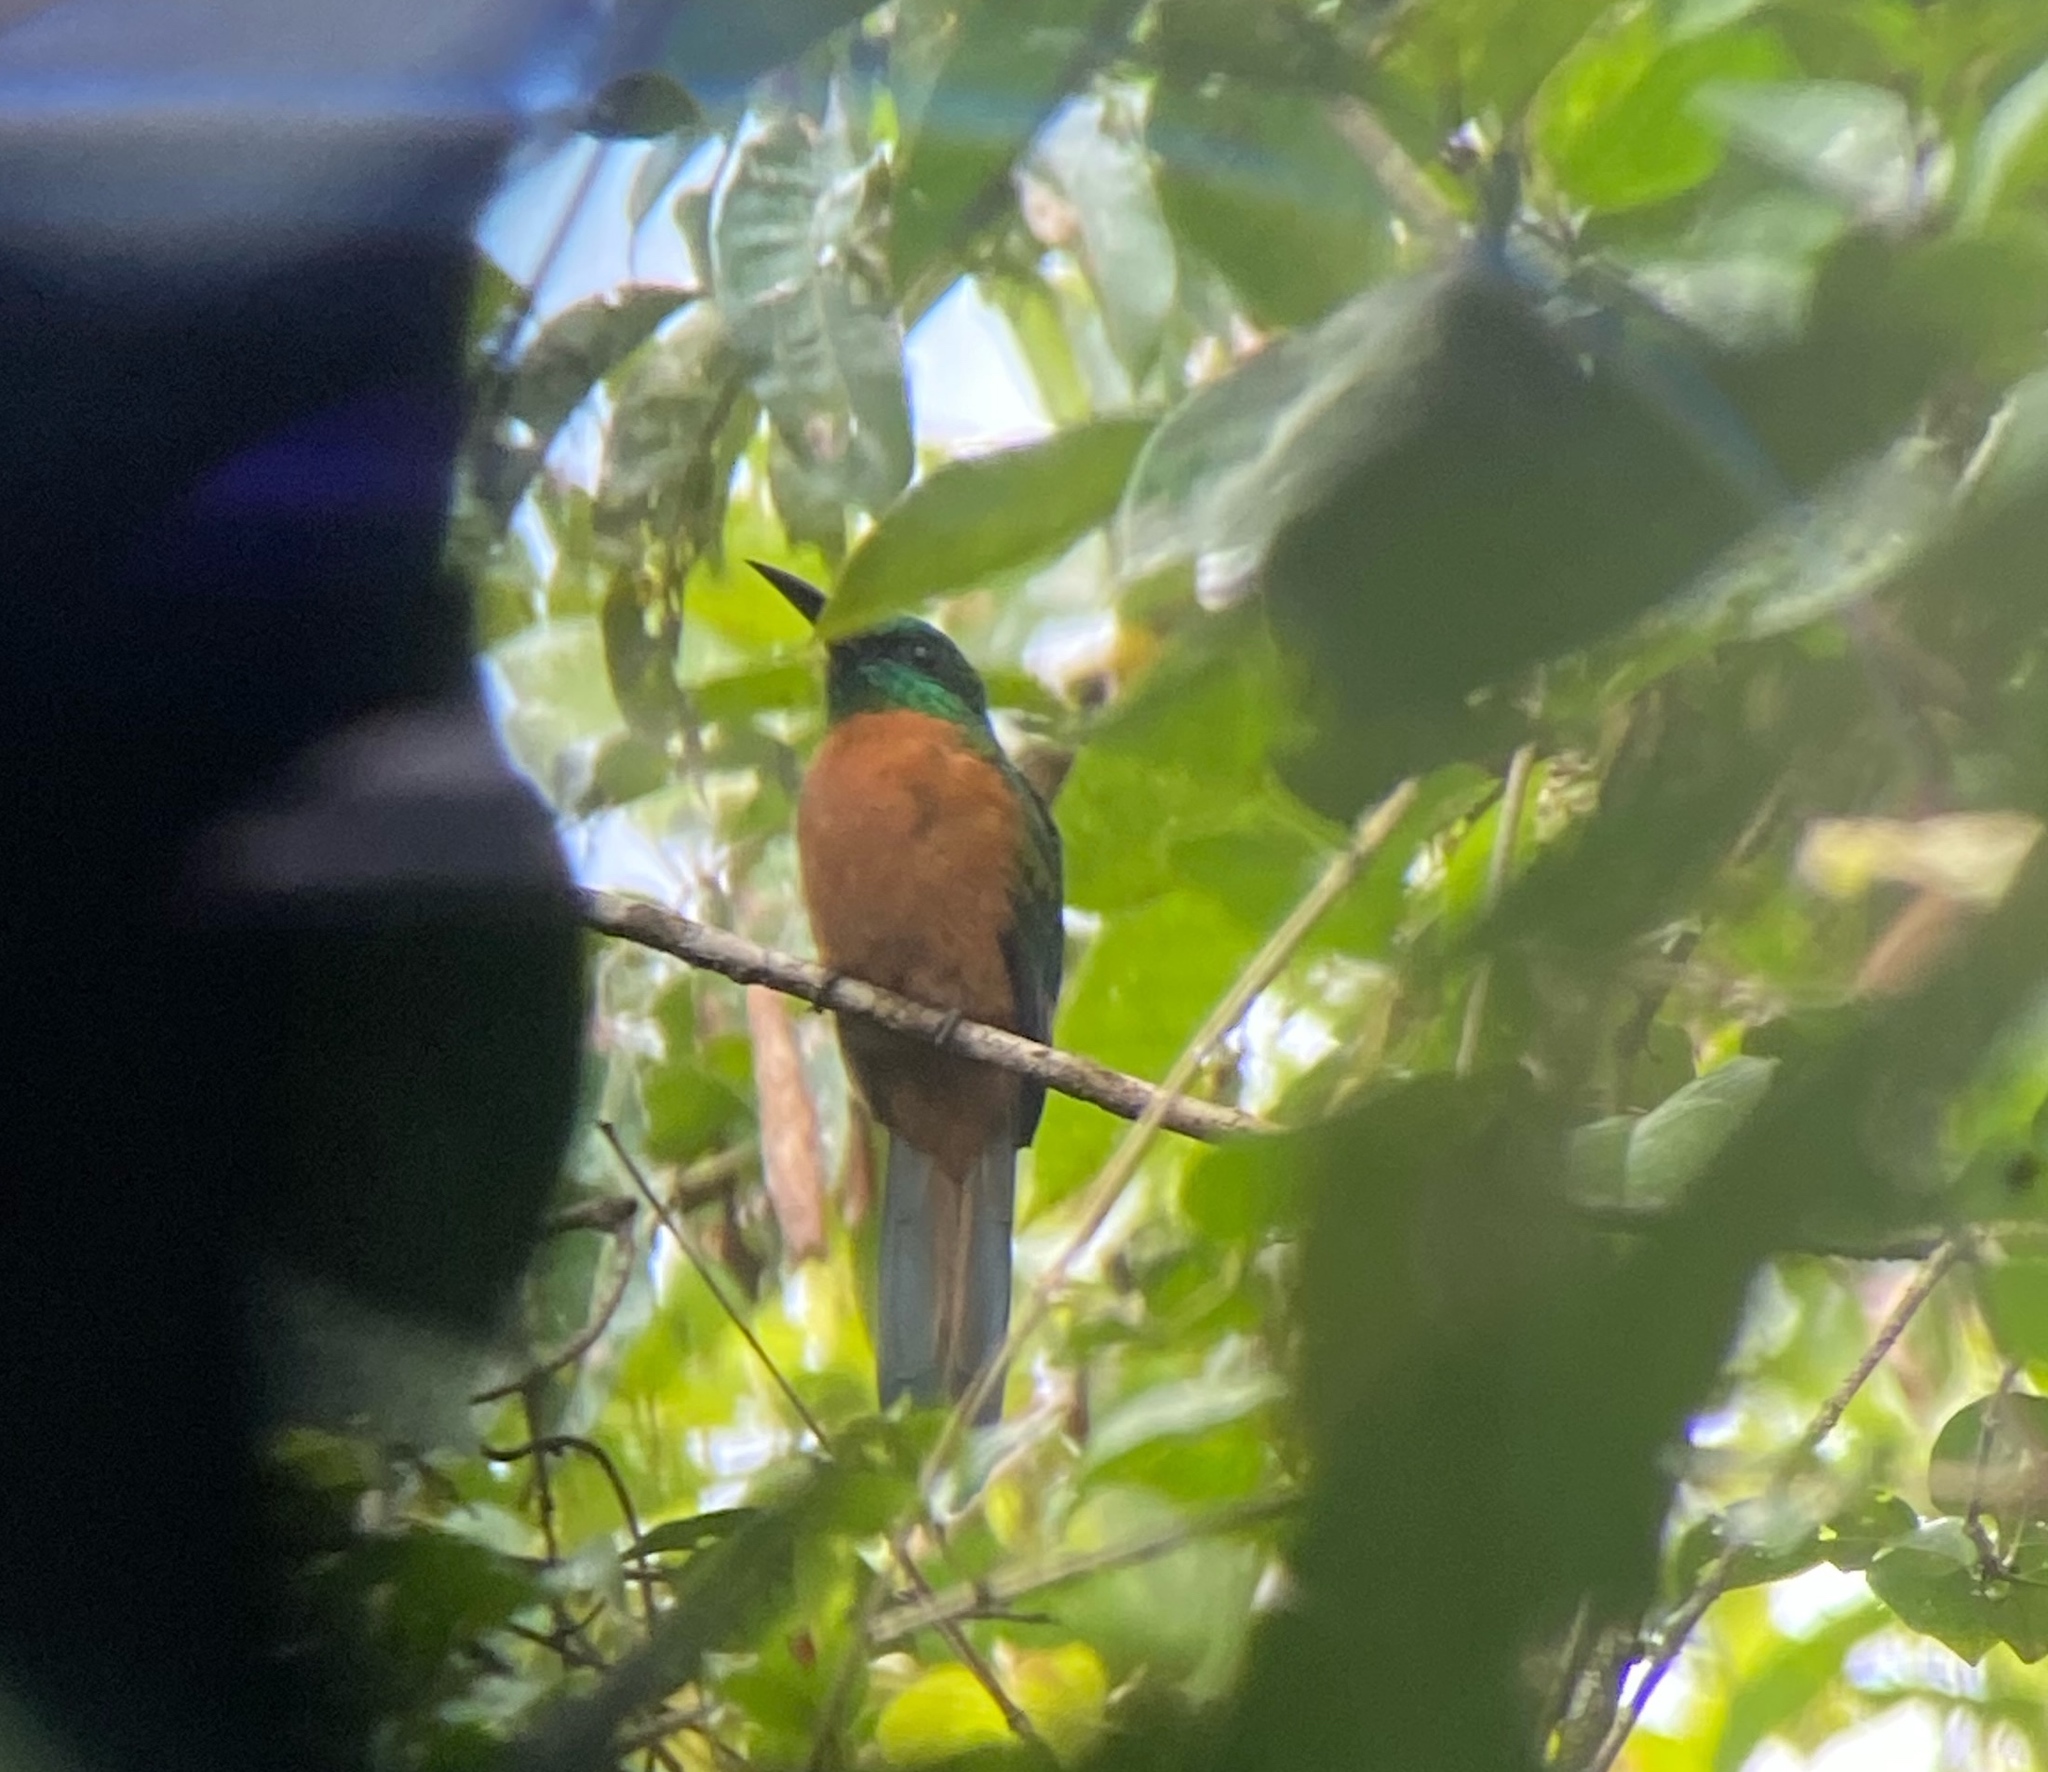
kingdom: Animalia
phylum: Chordata
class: Aves
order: Piciformes
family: Galbulidae
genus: Jacamerops
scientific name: Jacamerops aureus
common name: Great jacamar
